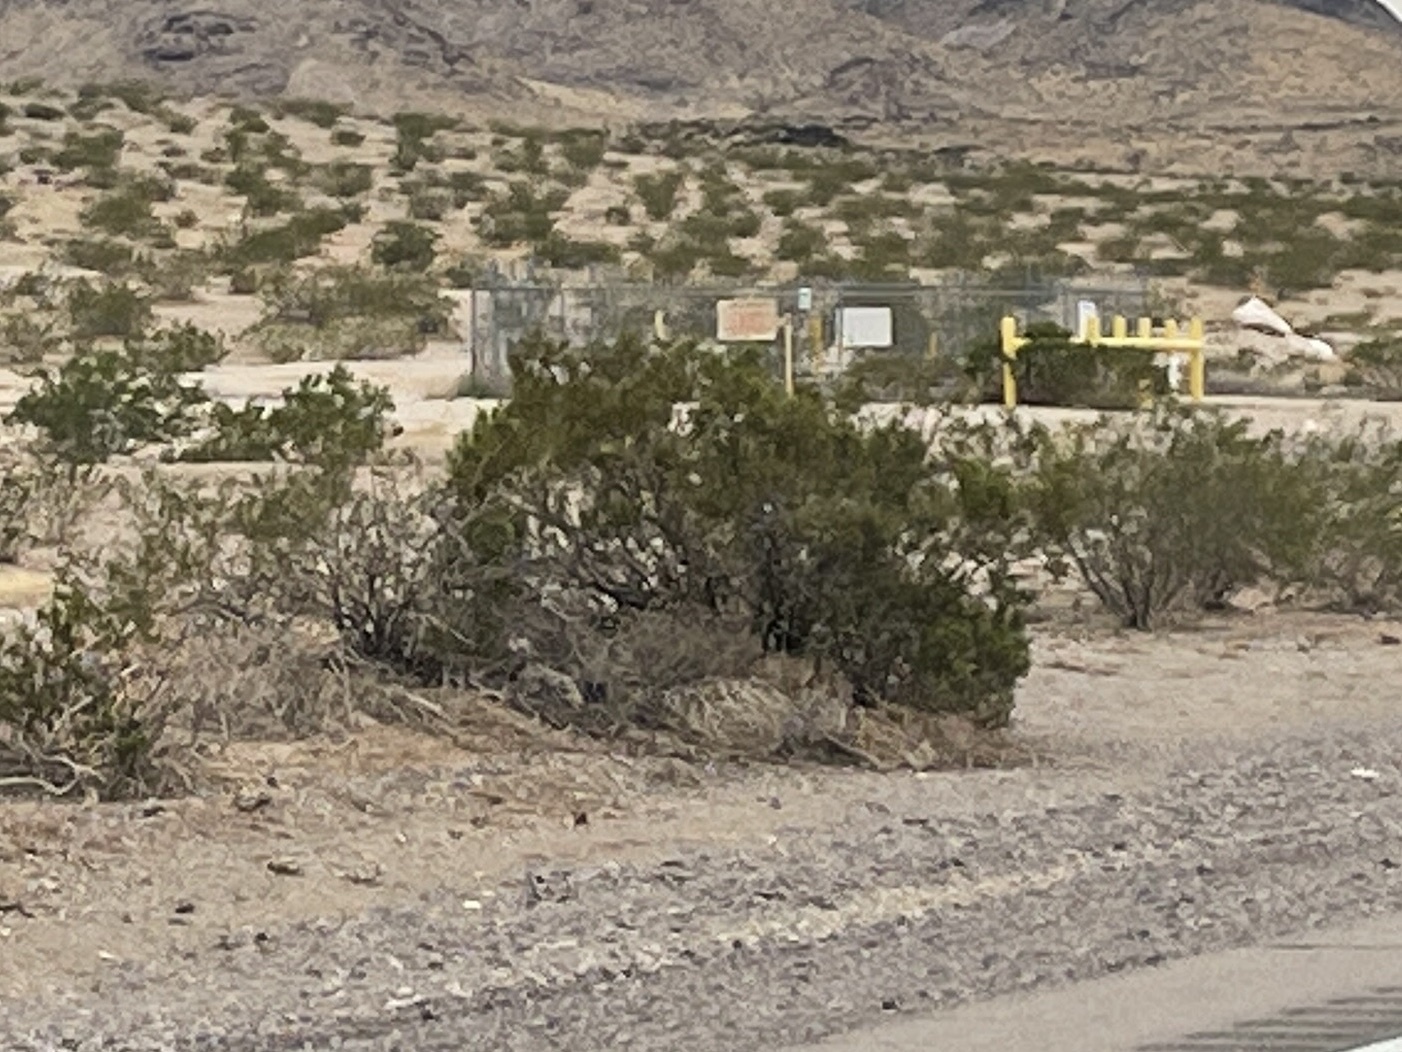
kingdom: Plantae
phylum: Tracheophyta
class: Magnoliopsida
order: Zygophyllales
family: Zygophyllaceae
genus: Larrea
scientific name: Larrea tridentata
